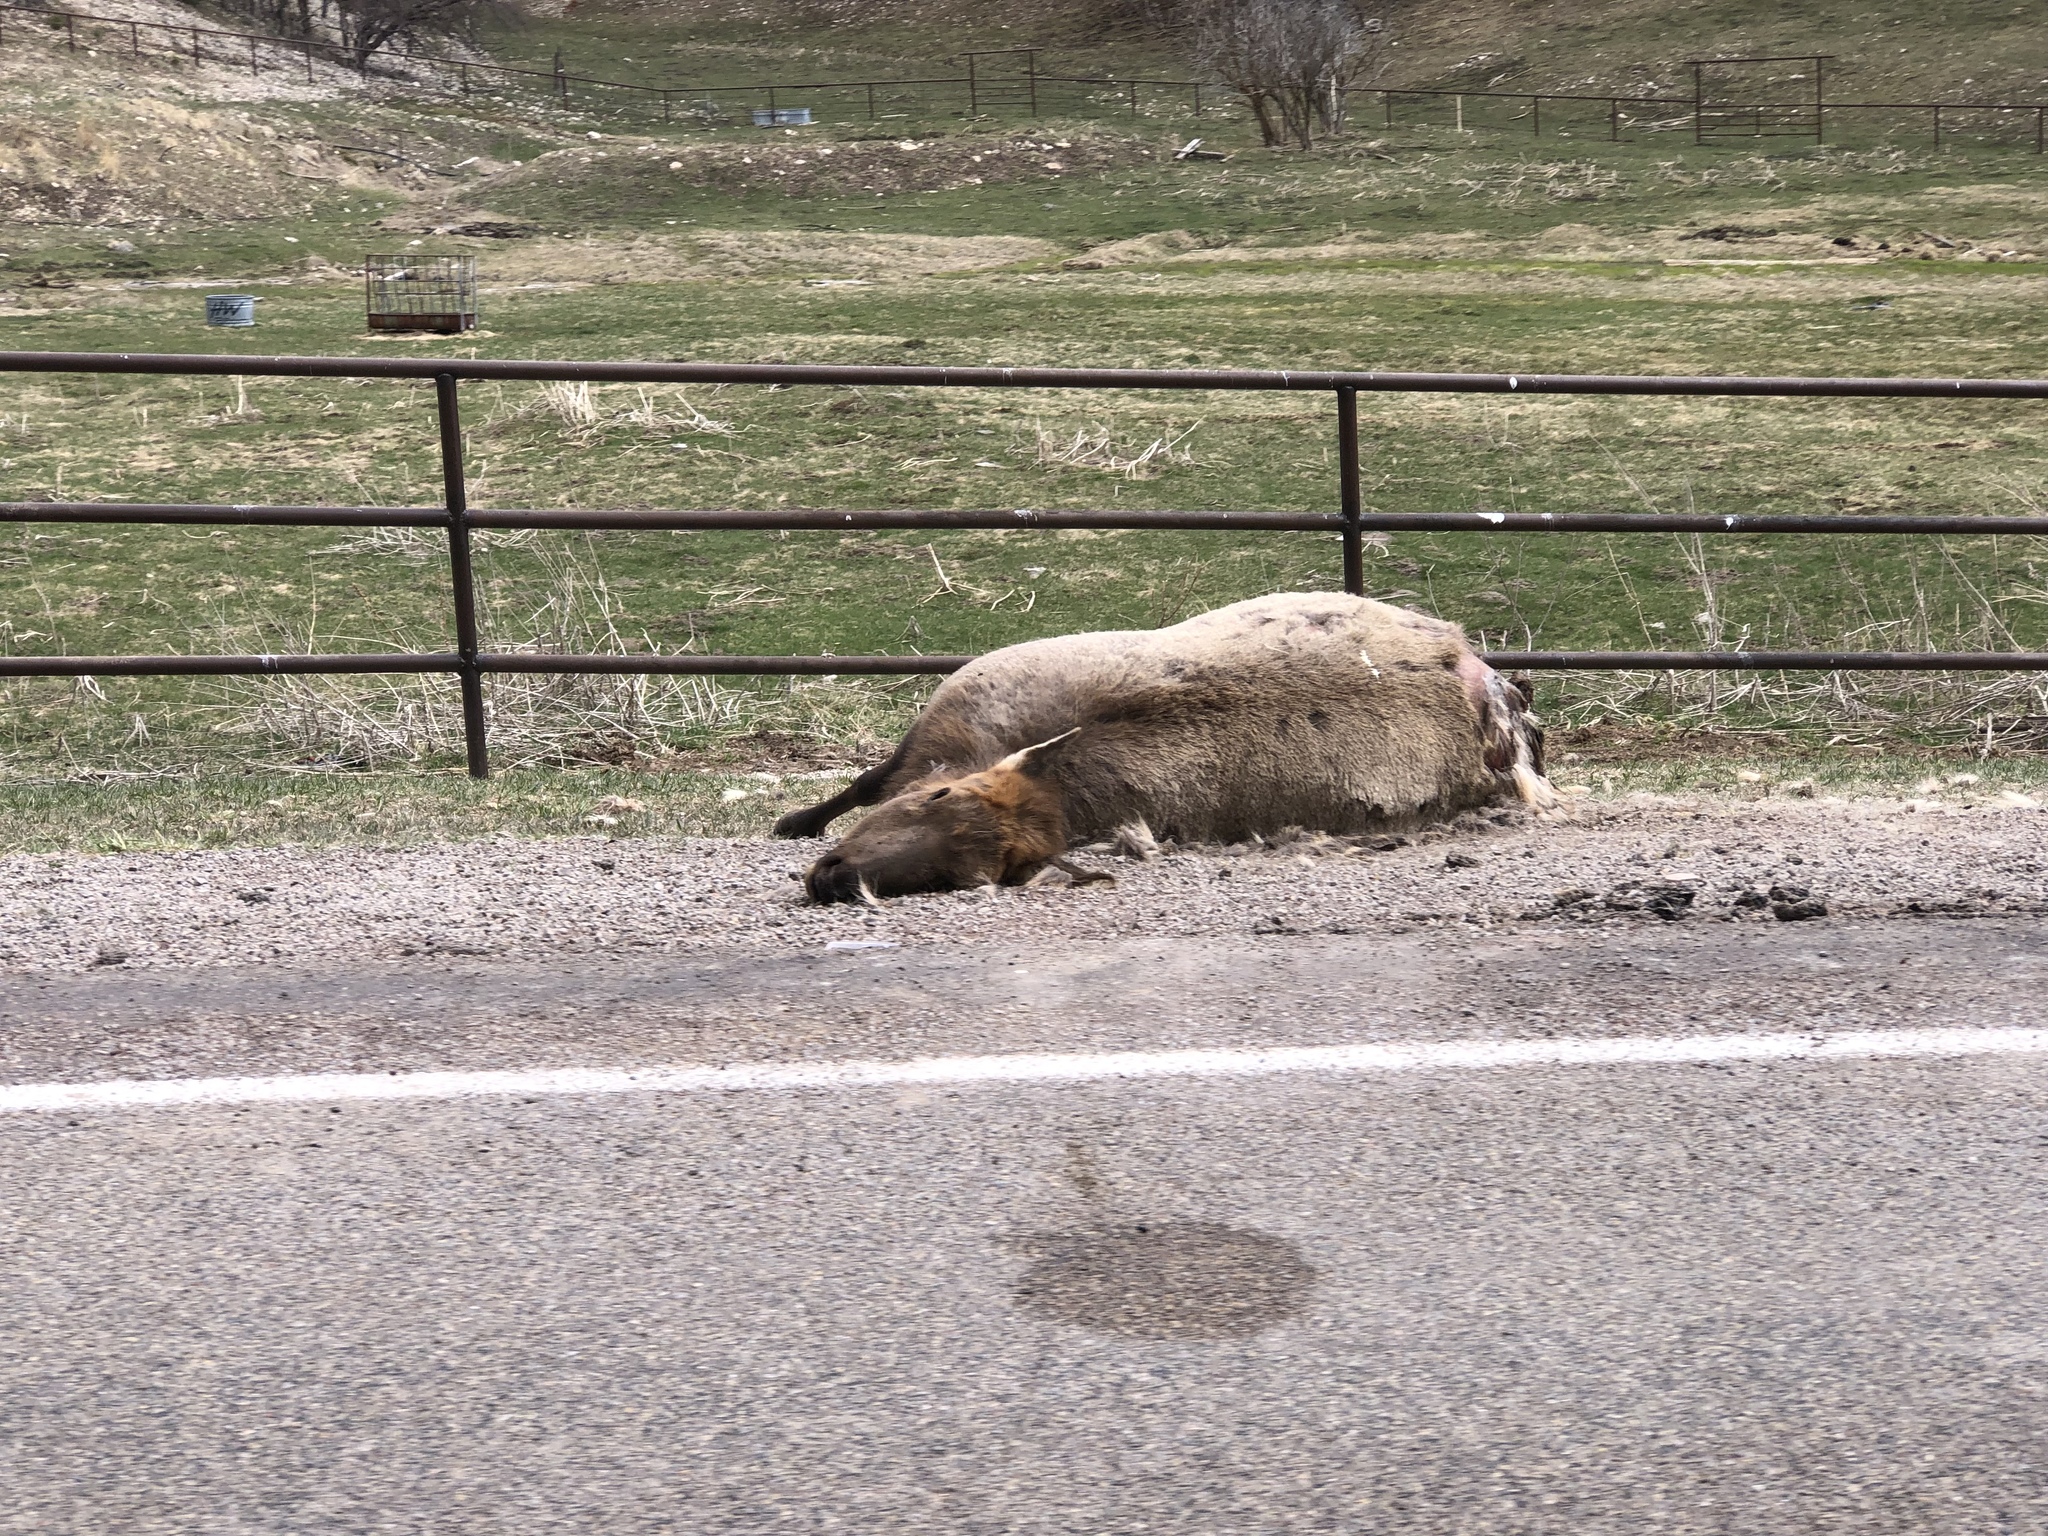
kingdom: Animalia
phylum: Chordata
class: Mammalia
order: Artiodactyla
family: Cervidae
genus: Cervus
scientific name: Cervus elaphus
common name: Red deer
